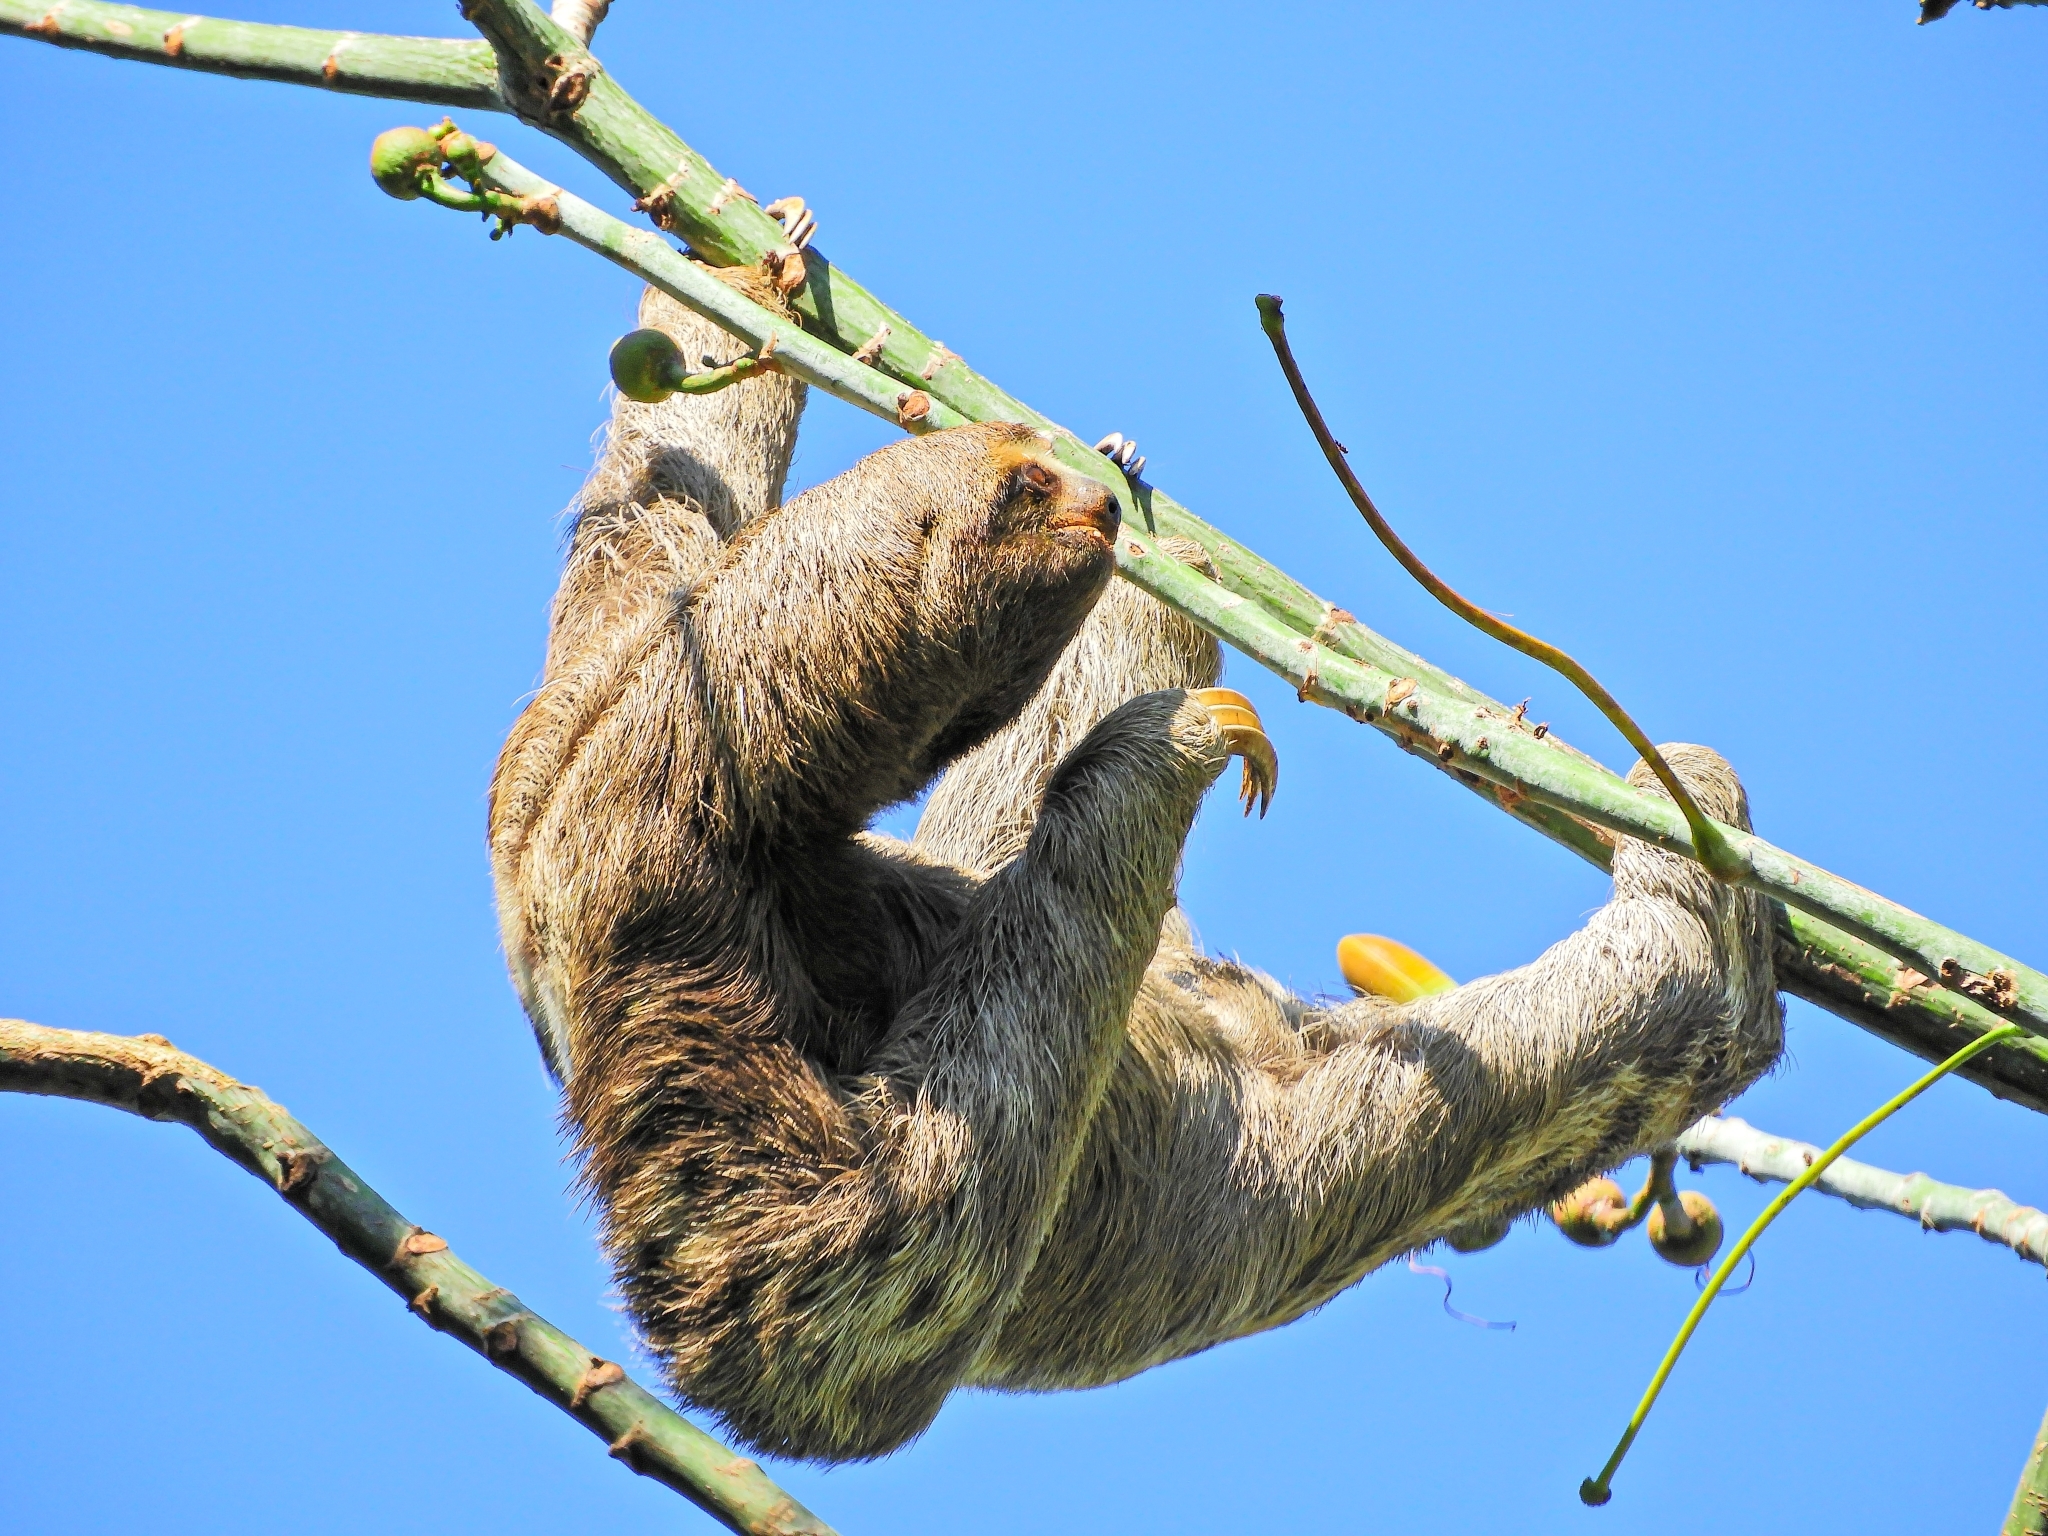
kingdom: Animalia
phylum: Chordata
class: Mammalia
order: Pilosa
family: Bradypodidae
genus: Bradypus
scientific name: Bradypus variegatus
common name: Brown-throated three-toed sloth
